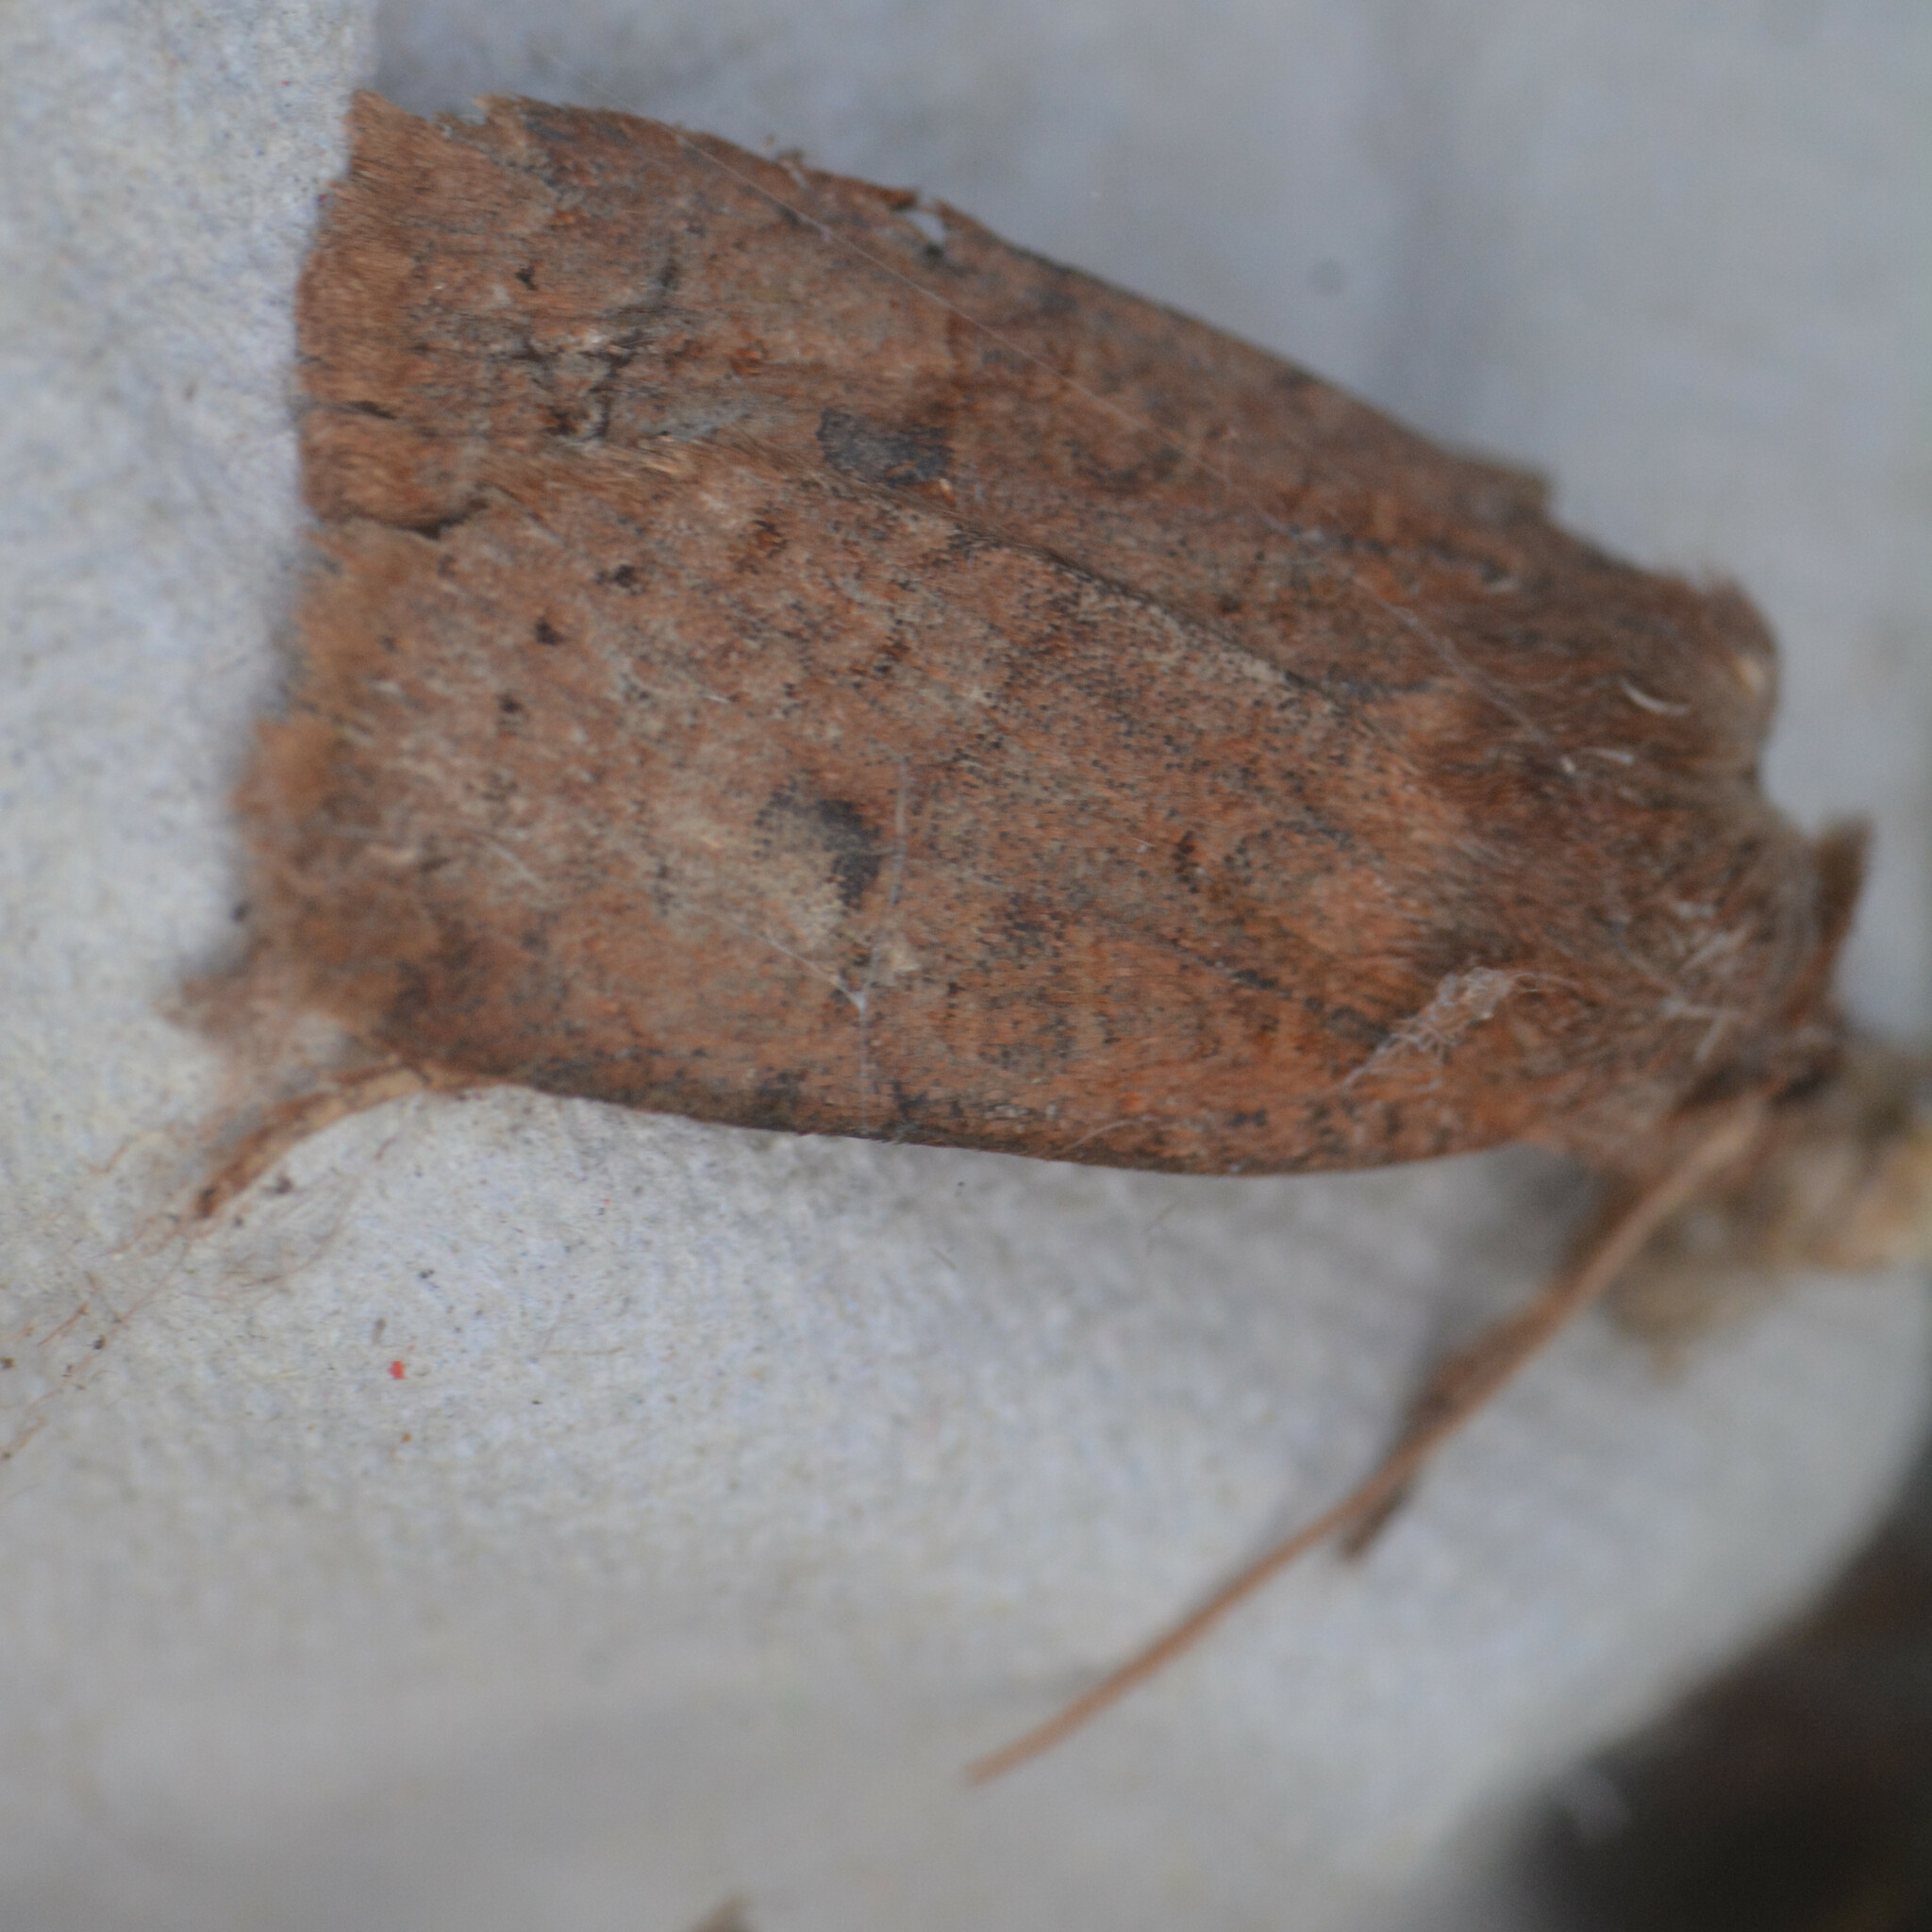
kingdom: Animalia
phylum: Arthropoda
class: Insecta
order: Lepidoptera
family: Noctuidae
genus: Conistra
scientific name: Conistra vaccinii
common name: Chestnut
